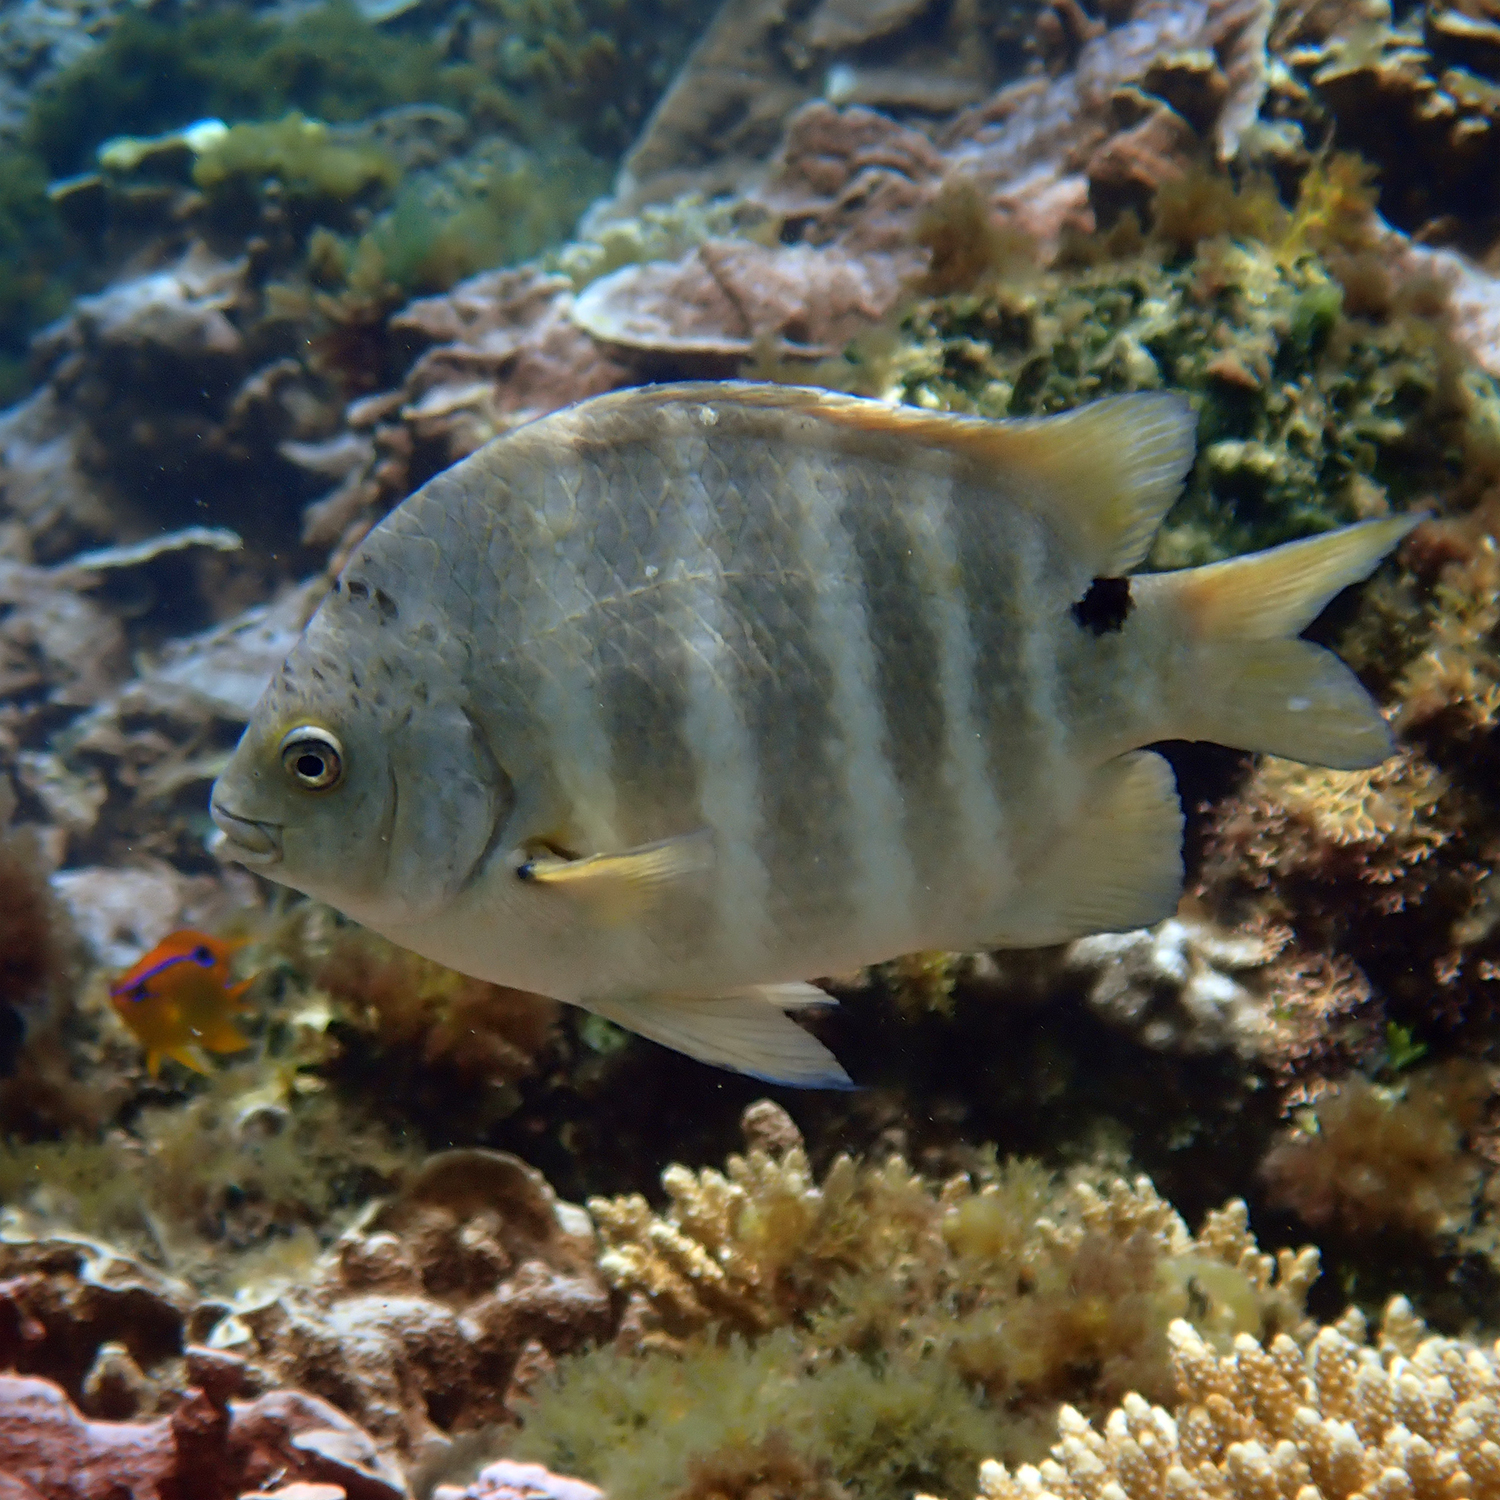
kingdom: Animalia
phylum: Chordata
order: Perciformes
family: Pomacentridae
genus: Abudefduf
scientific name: Abudefduf sordidus
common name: Blackspot sergeant
